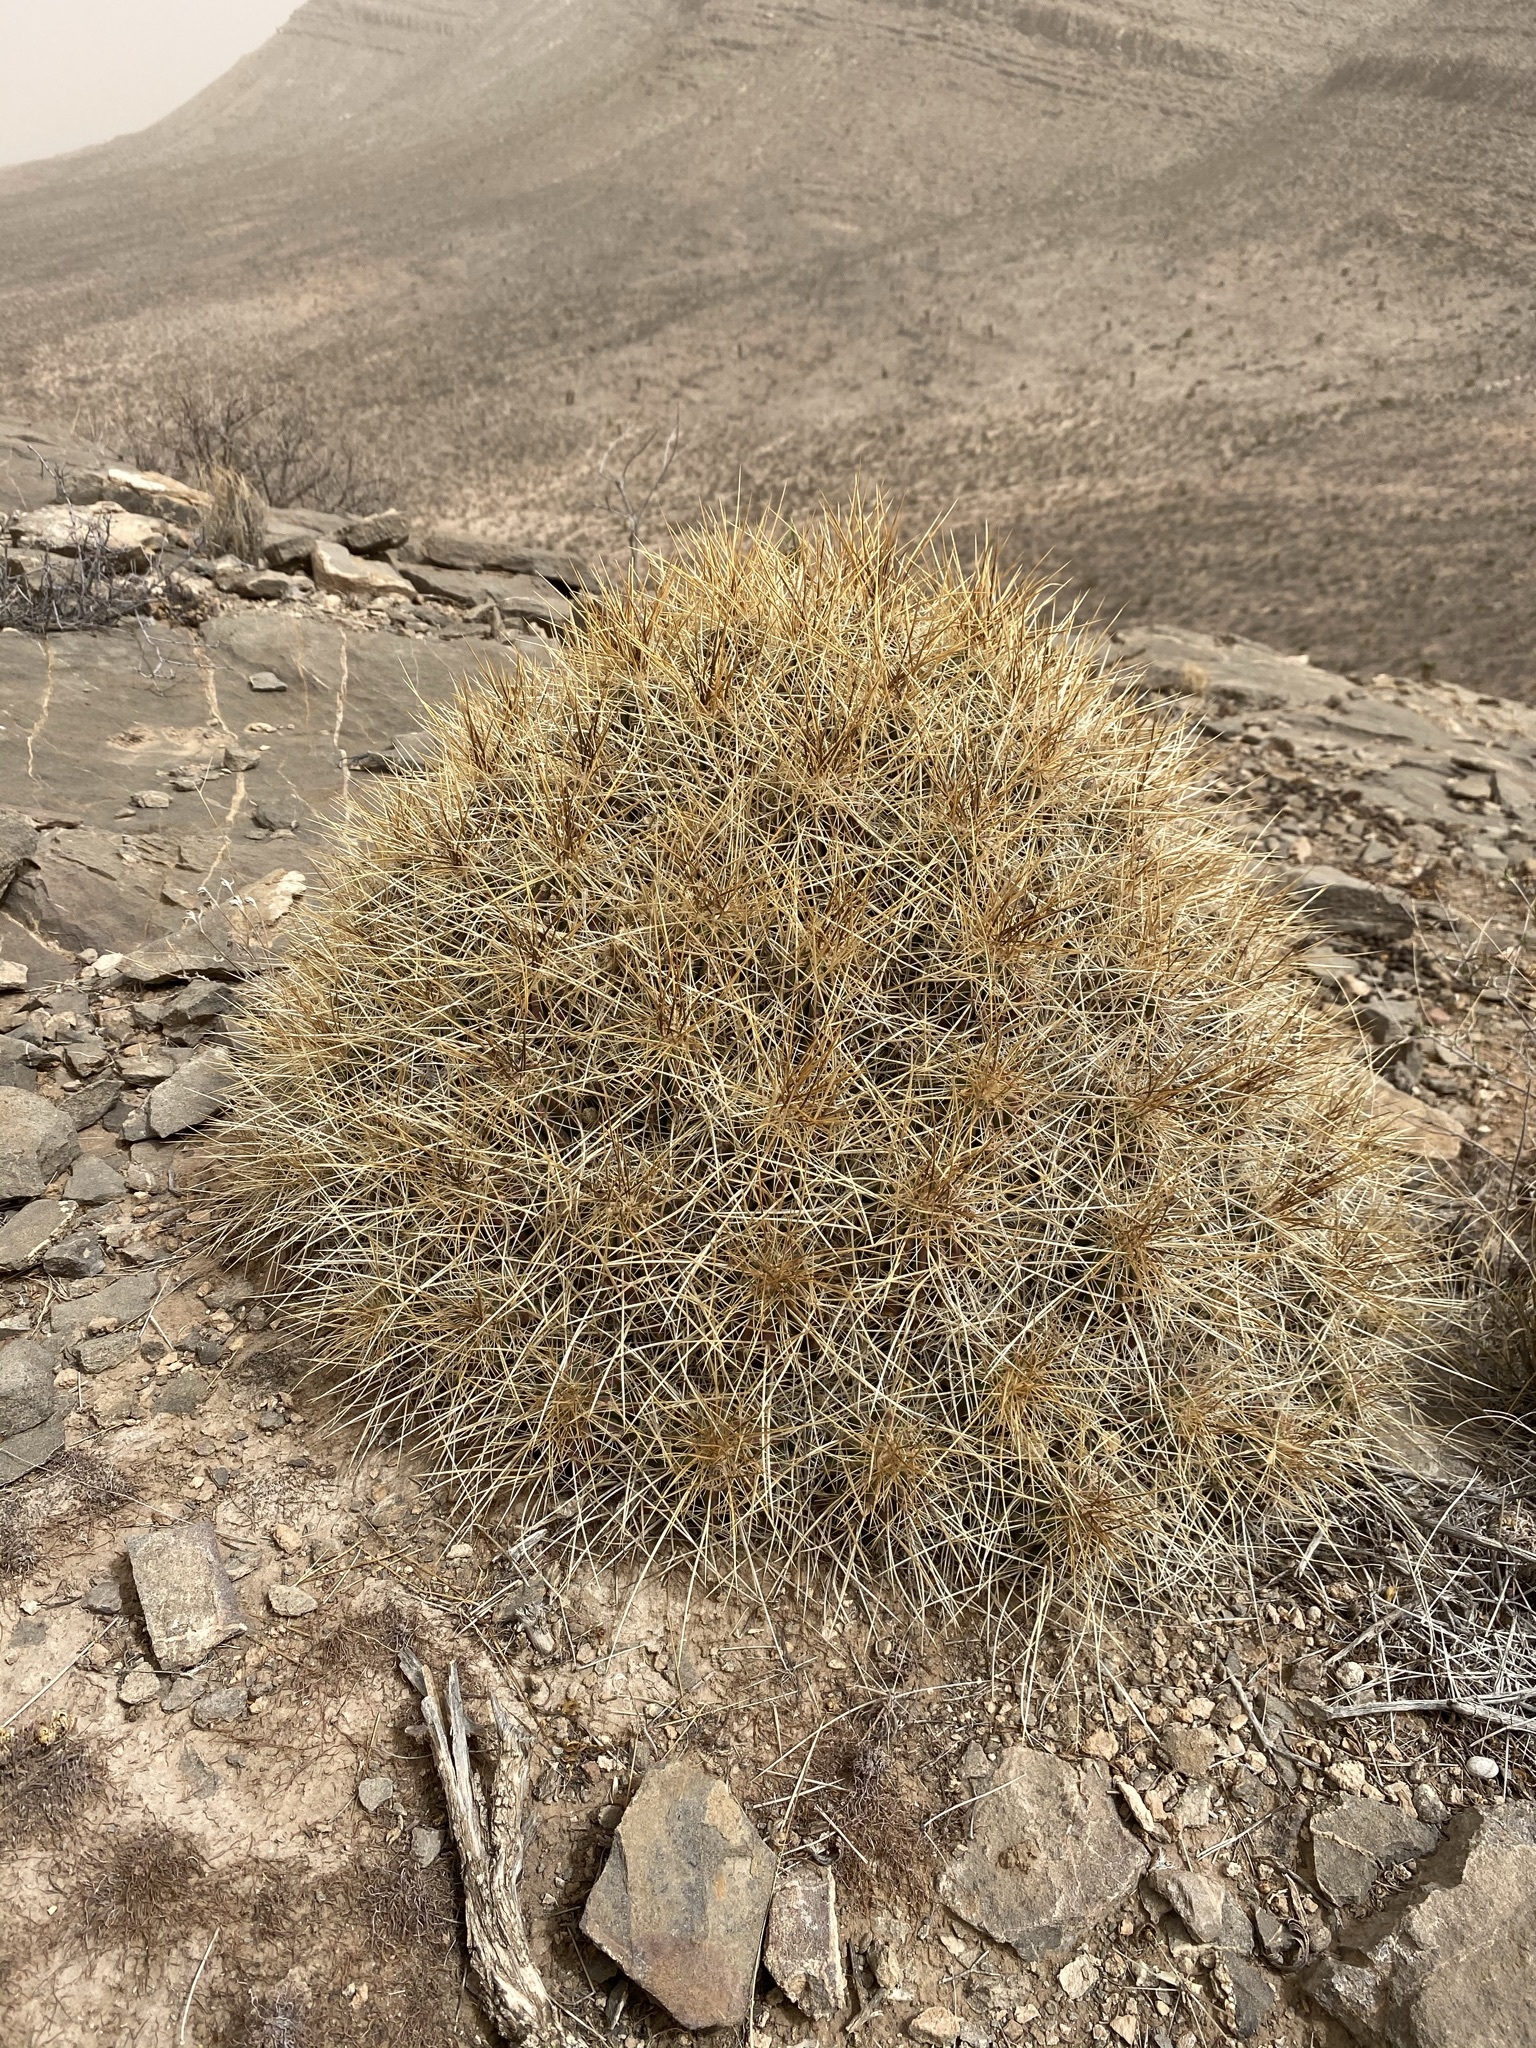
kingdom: Plantae
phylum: Tracheophyta
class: Magnoliopsida
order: Caryophyllales
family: Cactaceae
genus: Echinocereus
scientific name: Echinocereus stramineus
